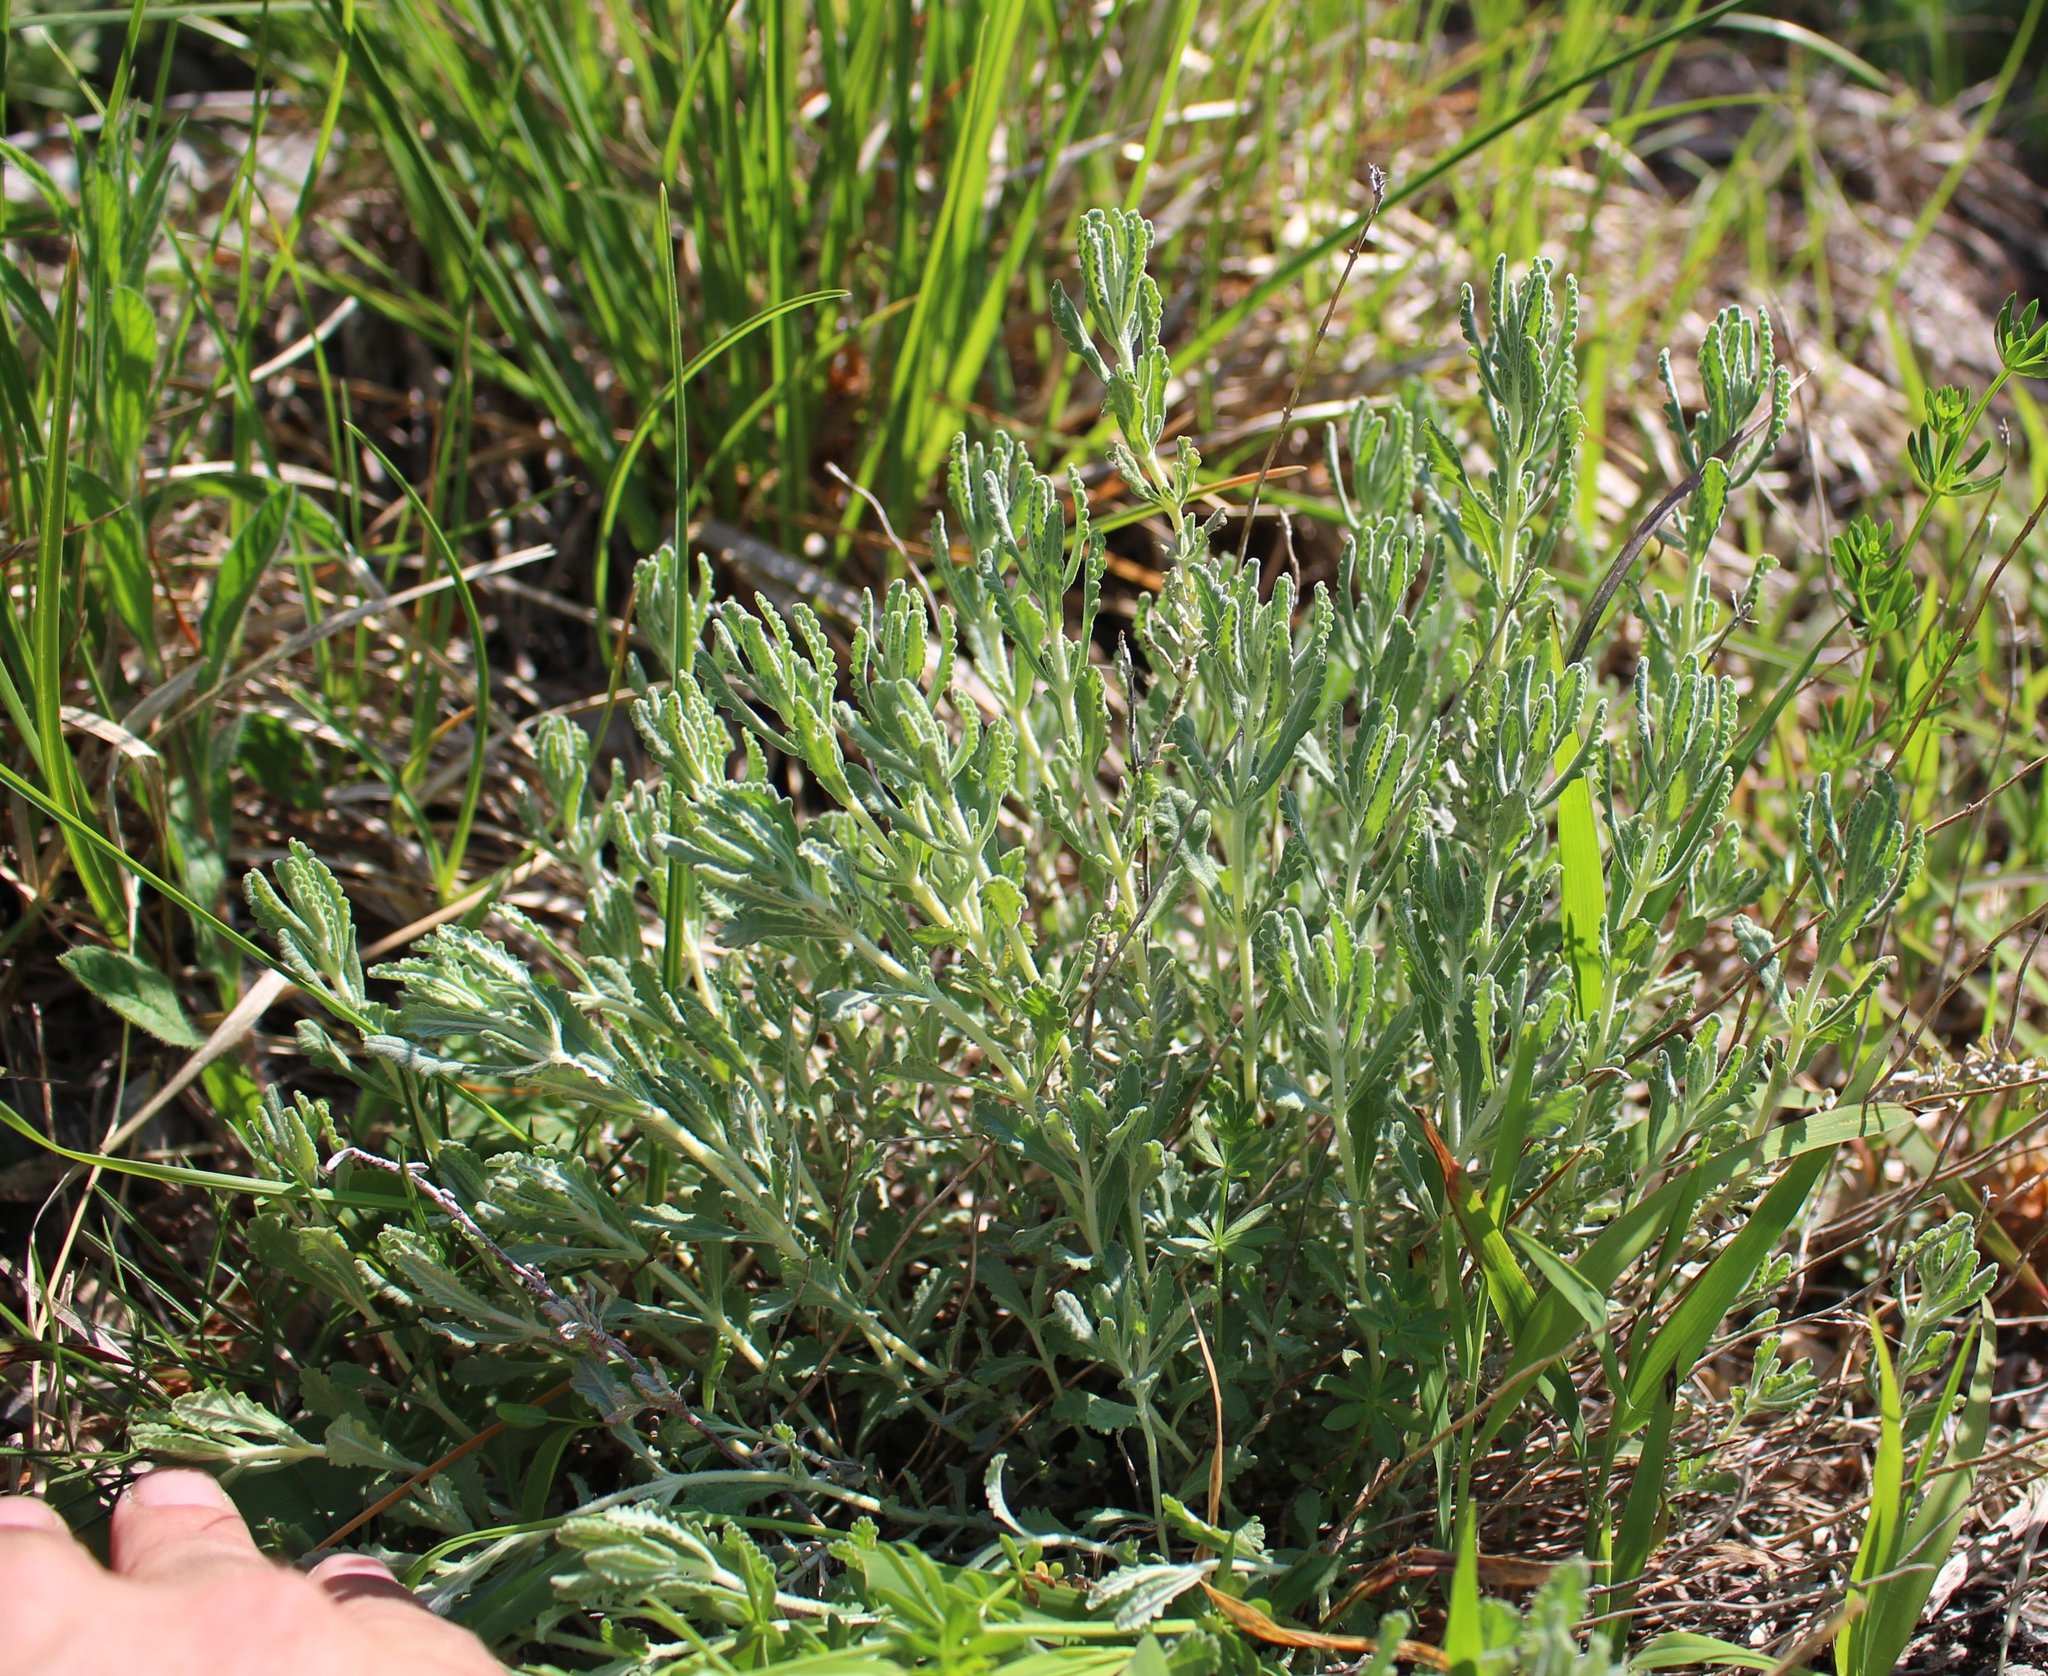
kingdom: Plantae
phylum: Tracheophyta
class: Magnoliopsida
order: Lamiales
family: Lamiaceae
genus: Teucrium
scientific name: Teucrium polium
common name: Poley
